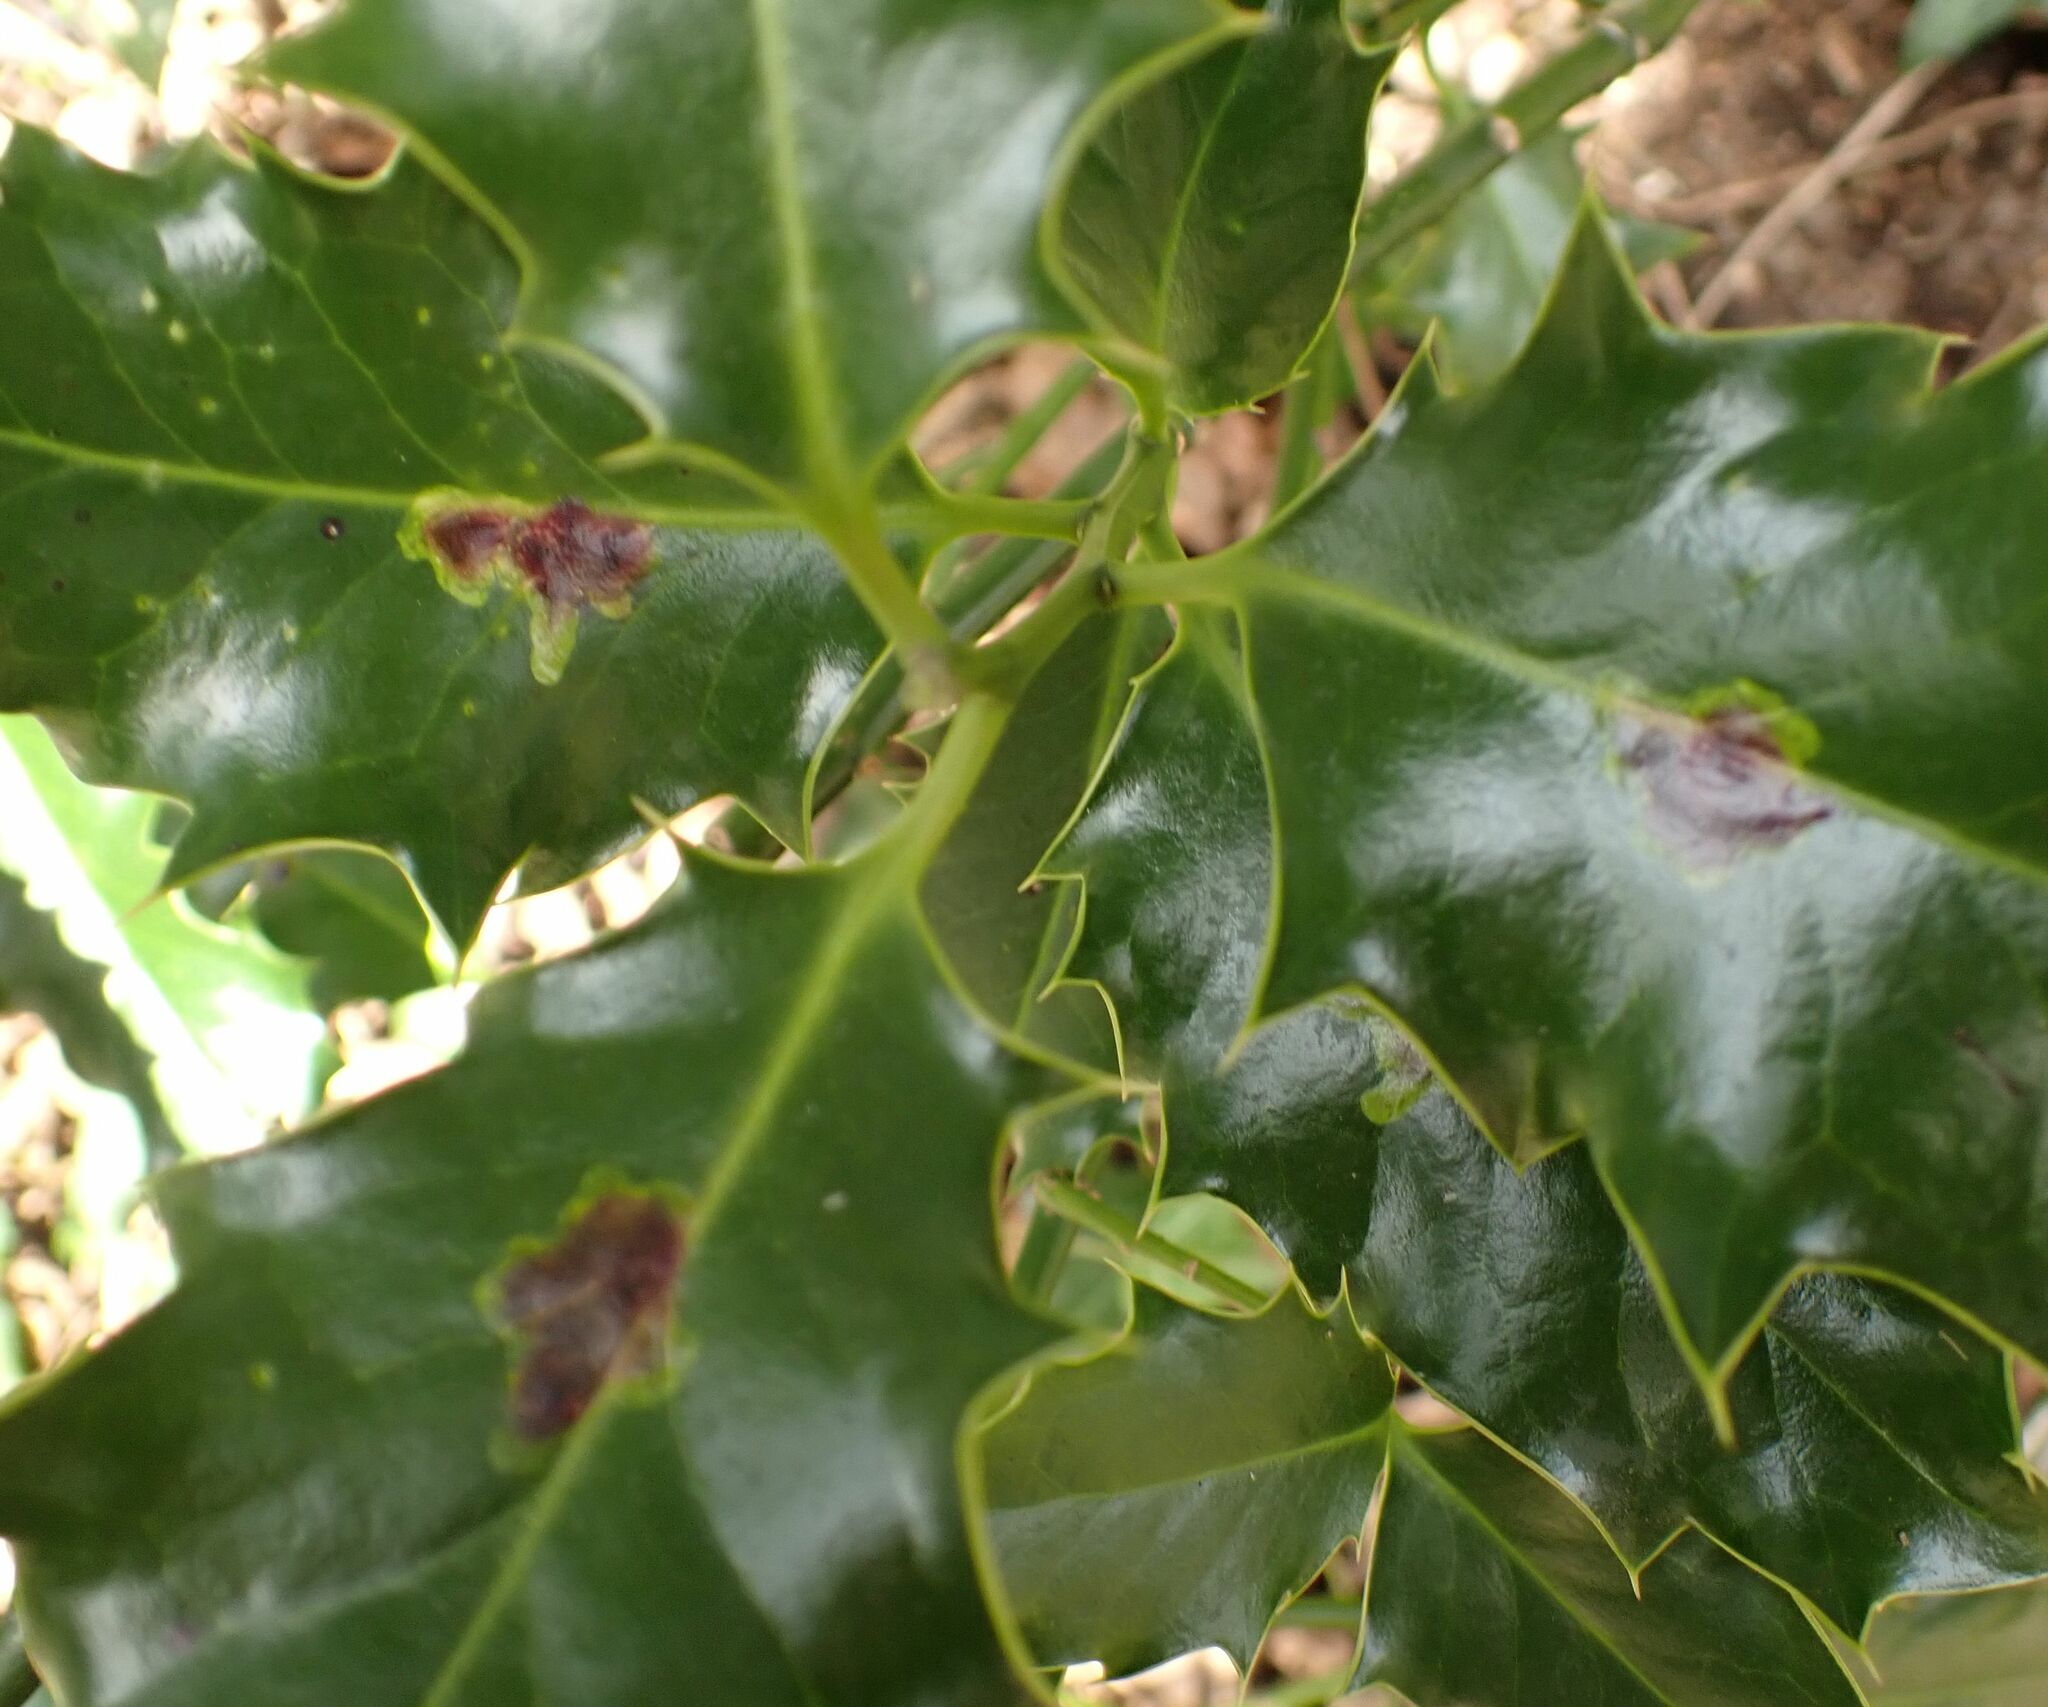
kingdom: Animalia
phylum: Arthropoda
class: Insecta
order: Diptera
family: Agromyzidae
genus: Phytomyza
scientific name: Phytomyza ilicis
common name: Holly leafminer
